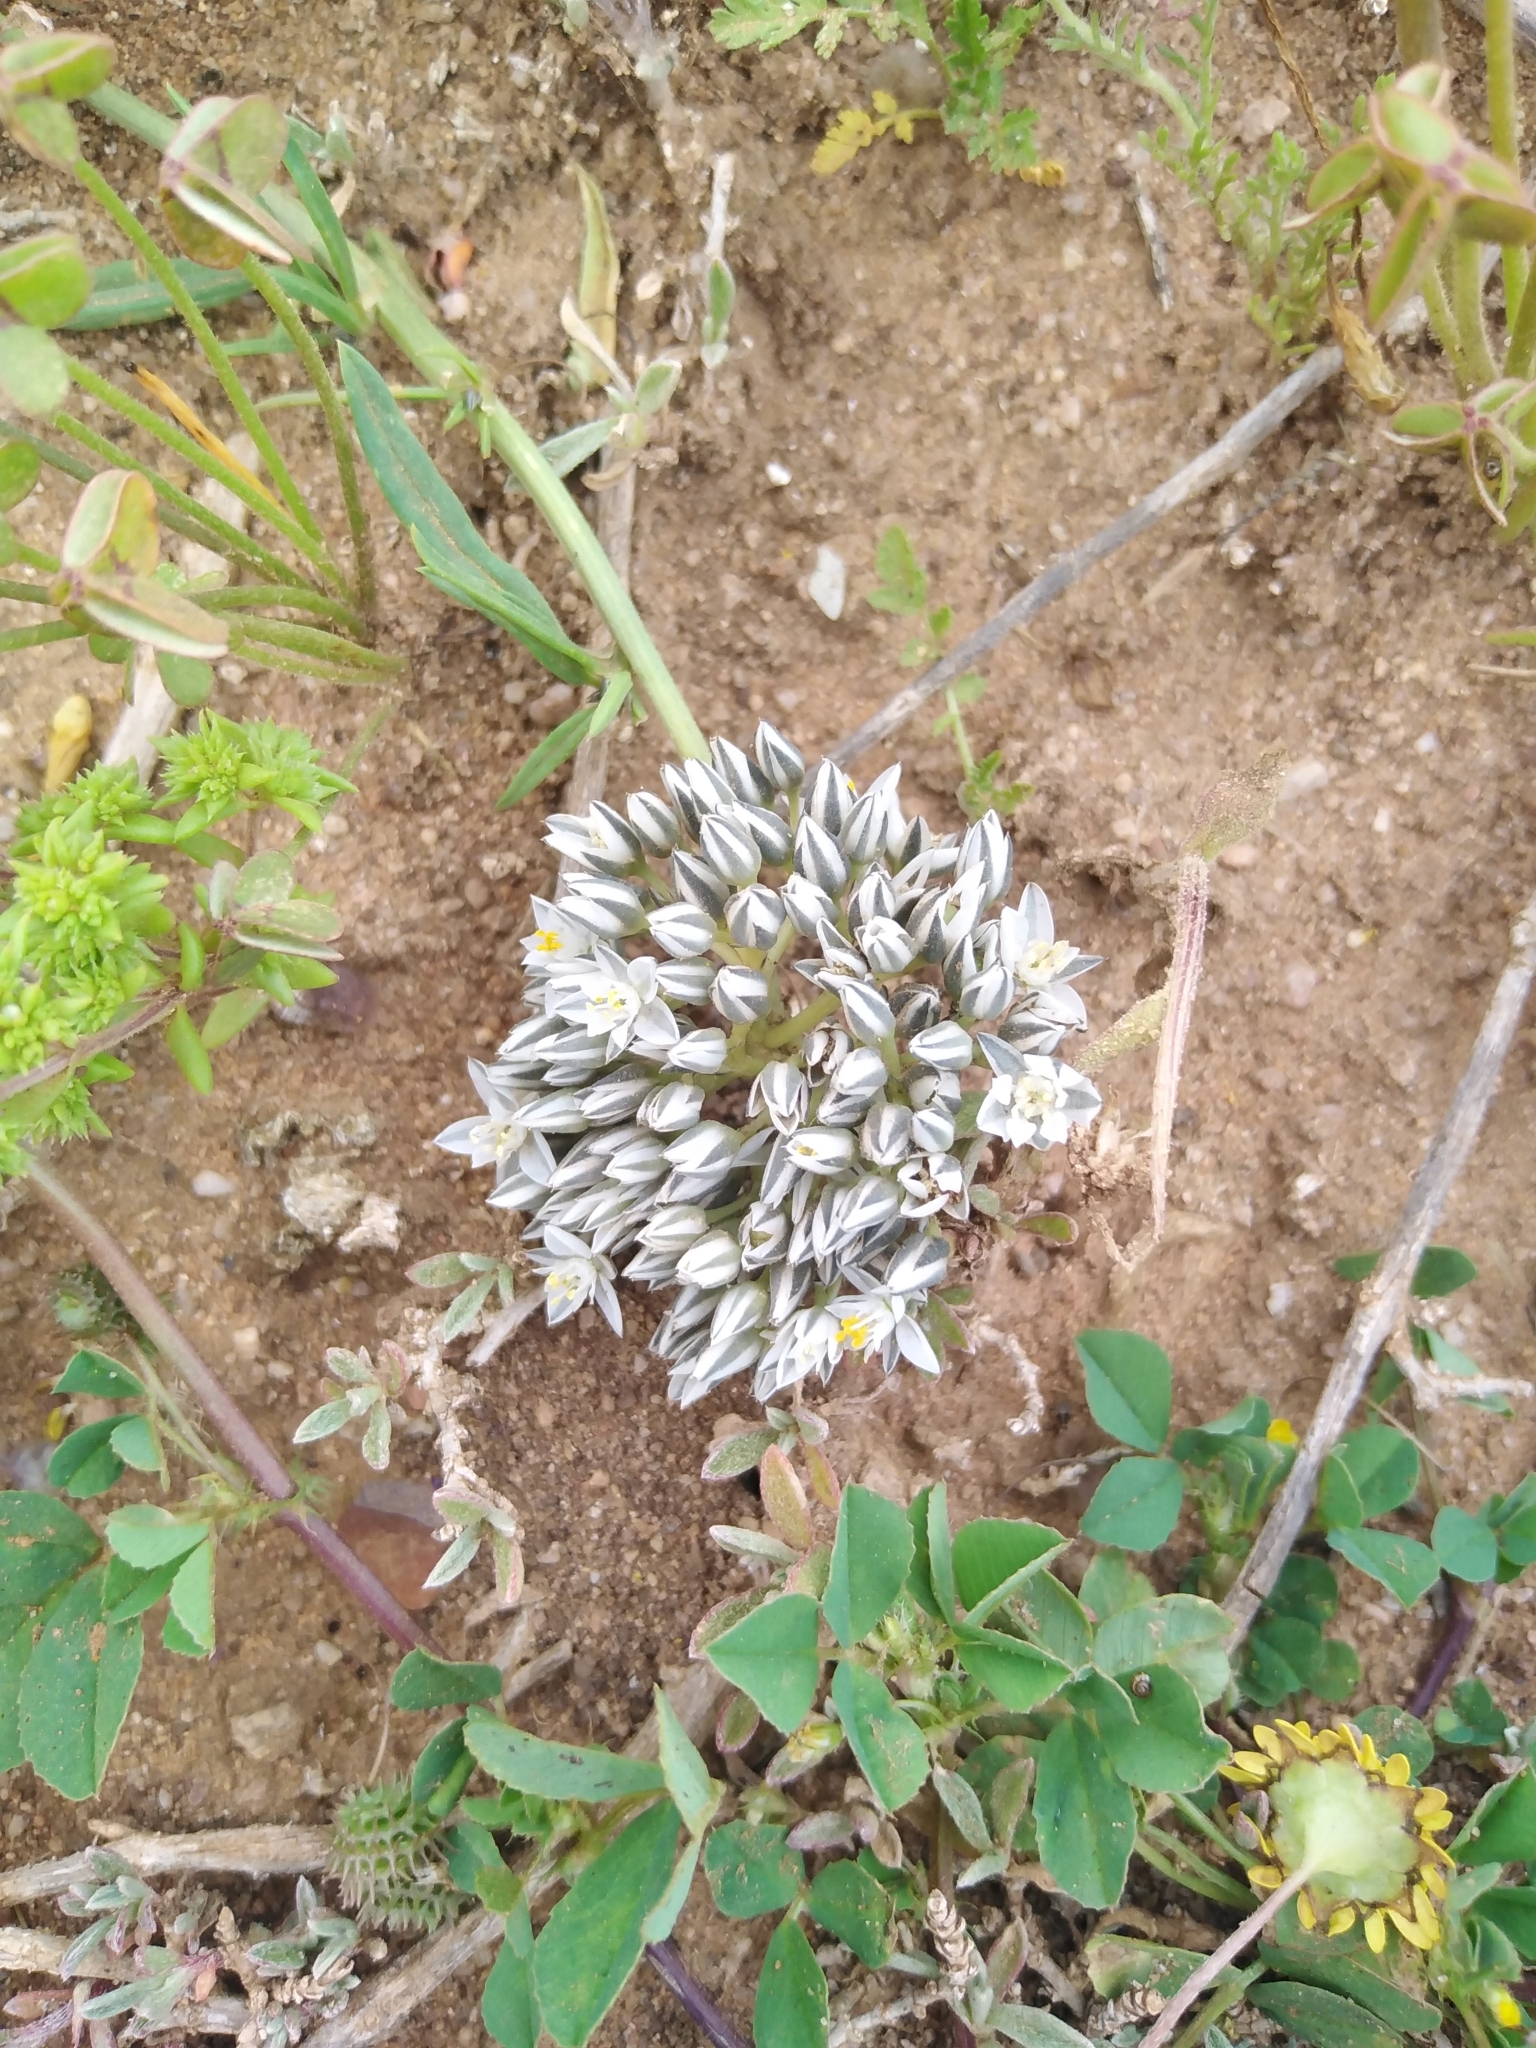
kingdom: Plantae
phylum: Tracheophyta
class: Magnoliopsida
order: Caryophyllales
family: Limeaceae
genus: Limeum
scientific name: Limeum africanum
